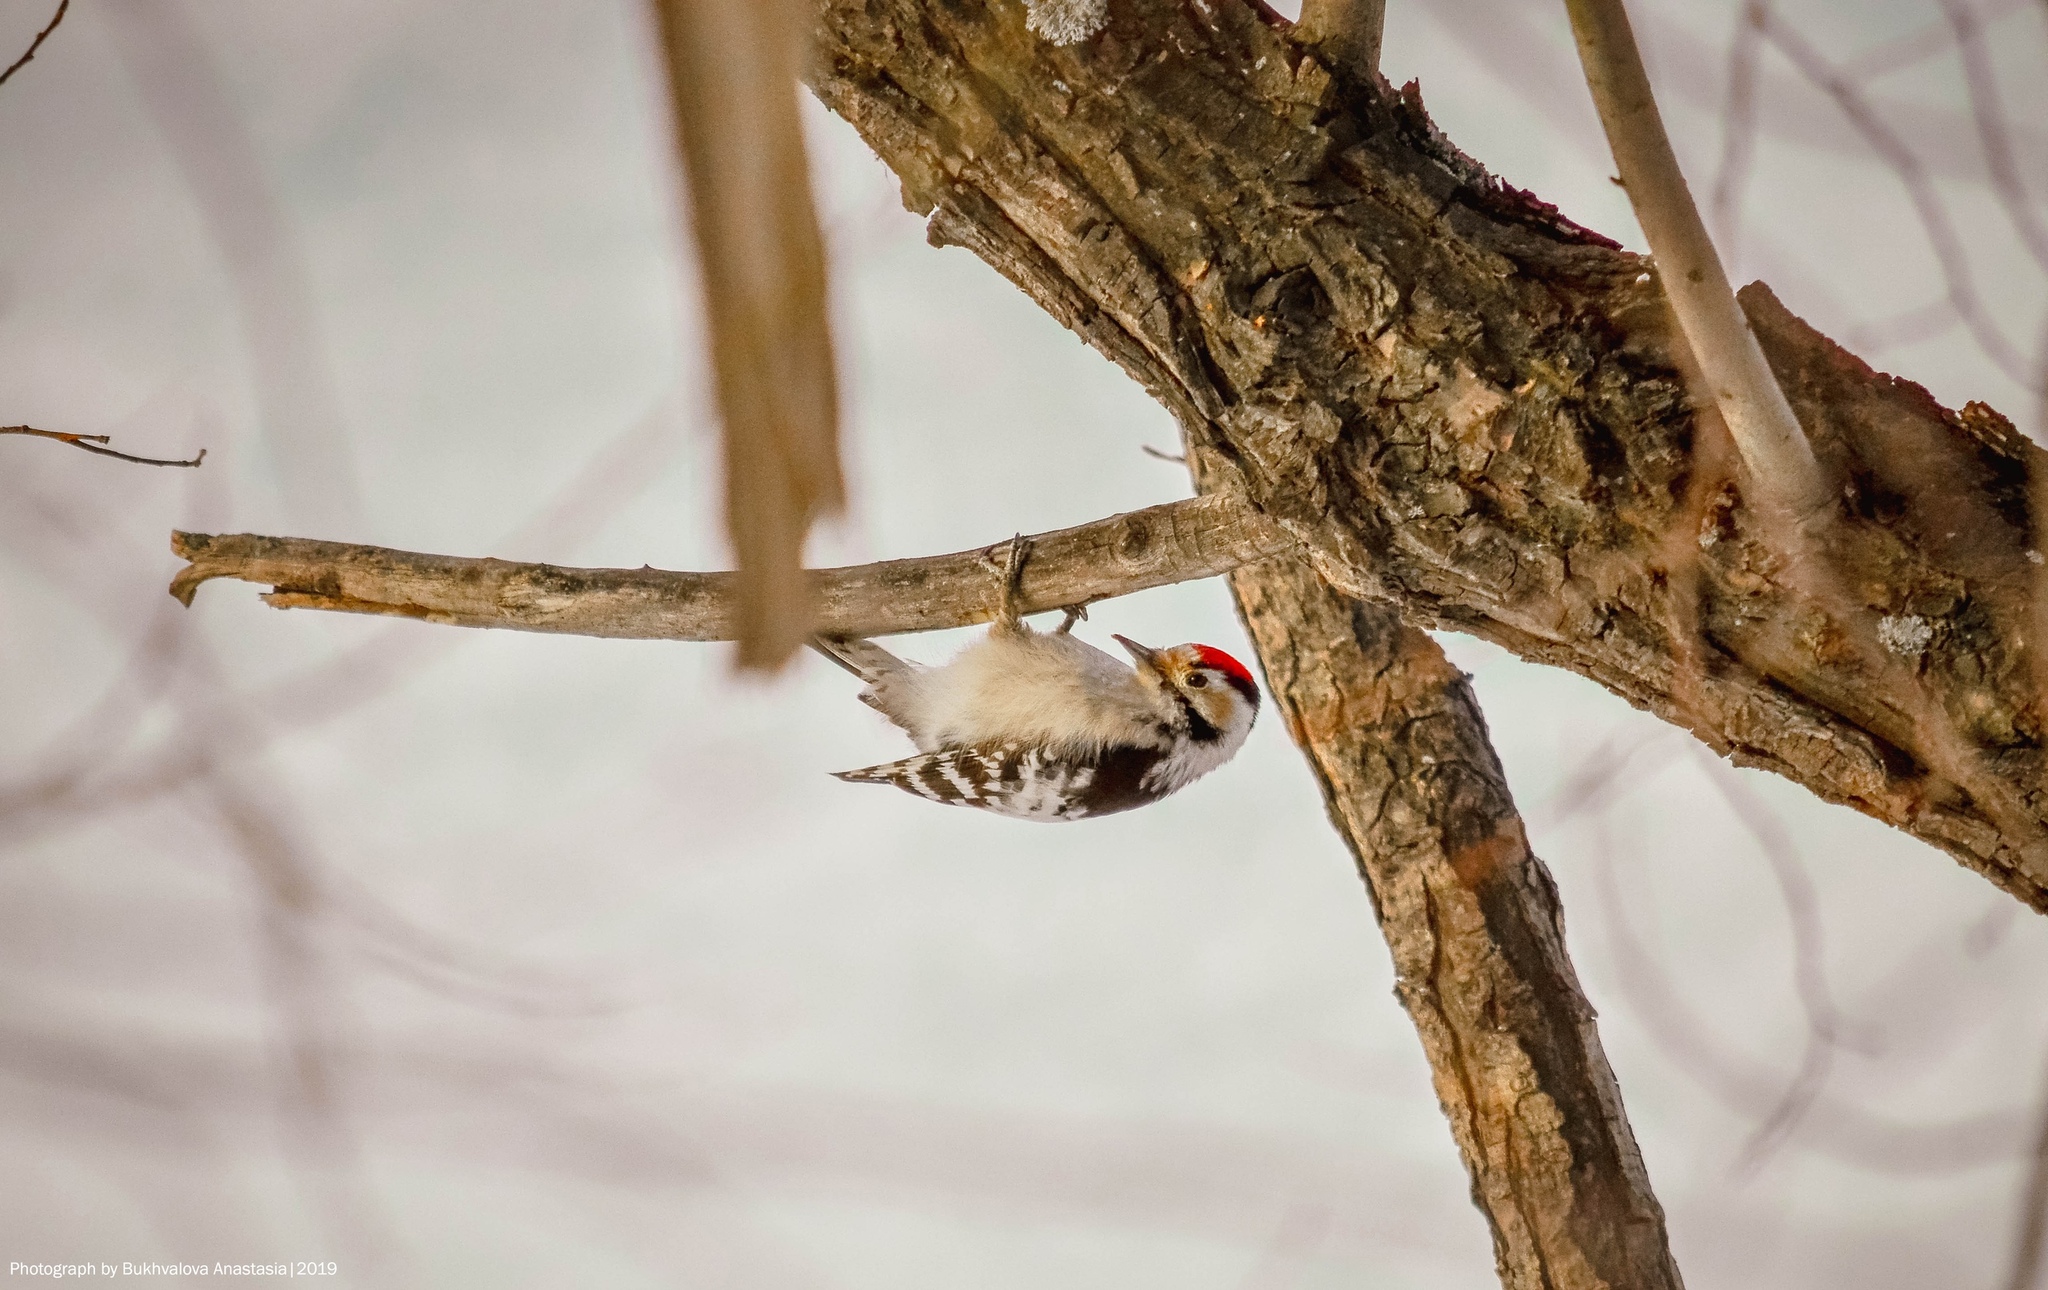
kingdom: Animalia
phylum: Chordata
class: Aves
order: Piciformes
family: Picidae
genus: Dryobates
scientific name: Dryobates minor
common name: Lesser spotted woodpecker
